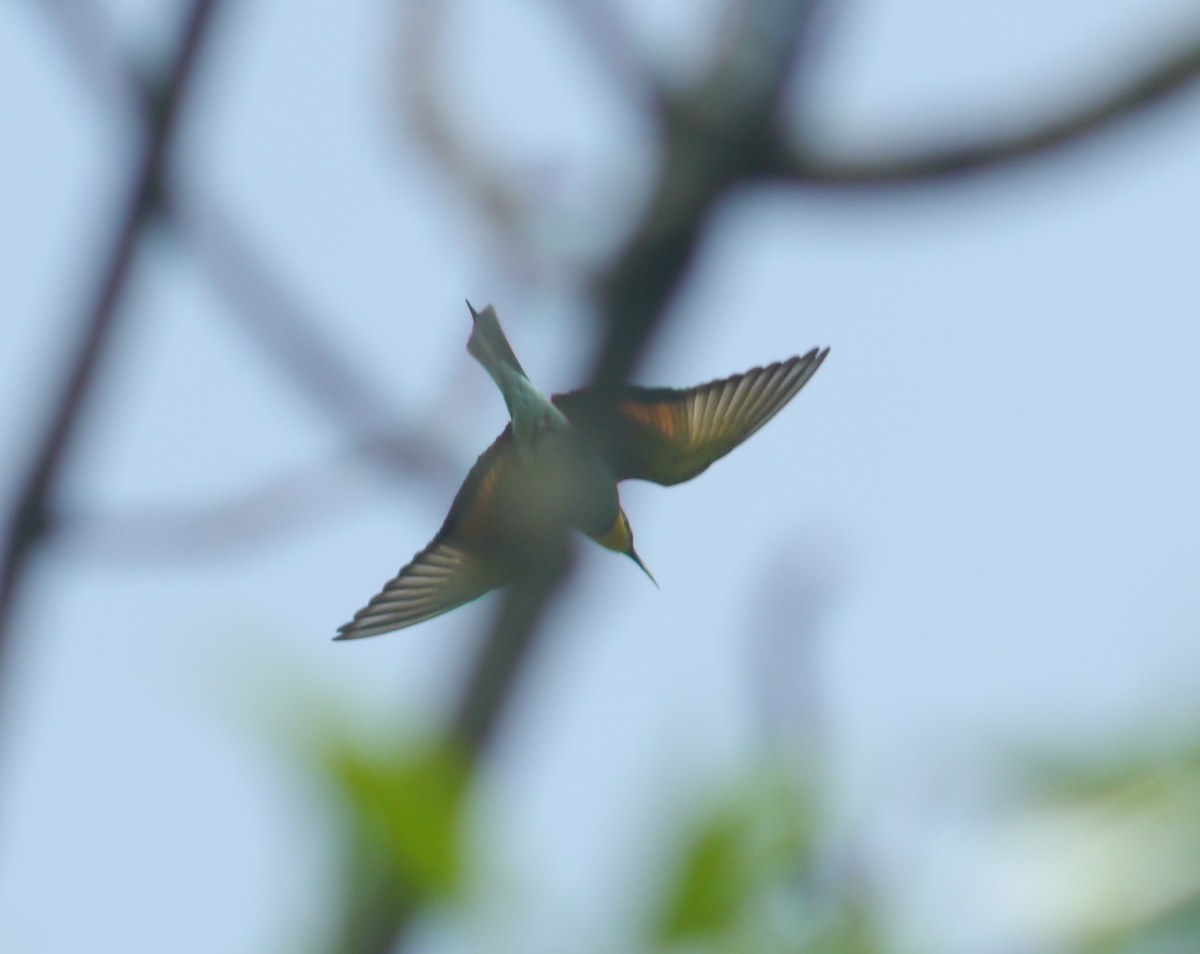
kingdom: Animalia
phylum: Chordata
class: Aves
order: Coraciiformes
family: Meropidae
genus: Merops
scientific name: Merops apiaster
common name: European bee-eater
